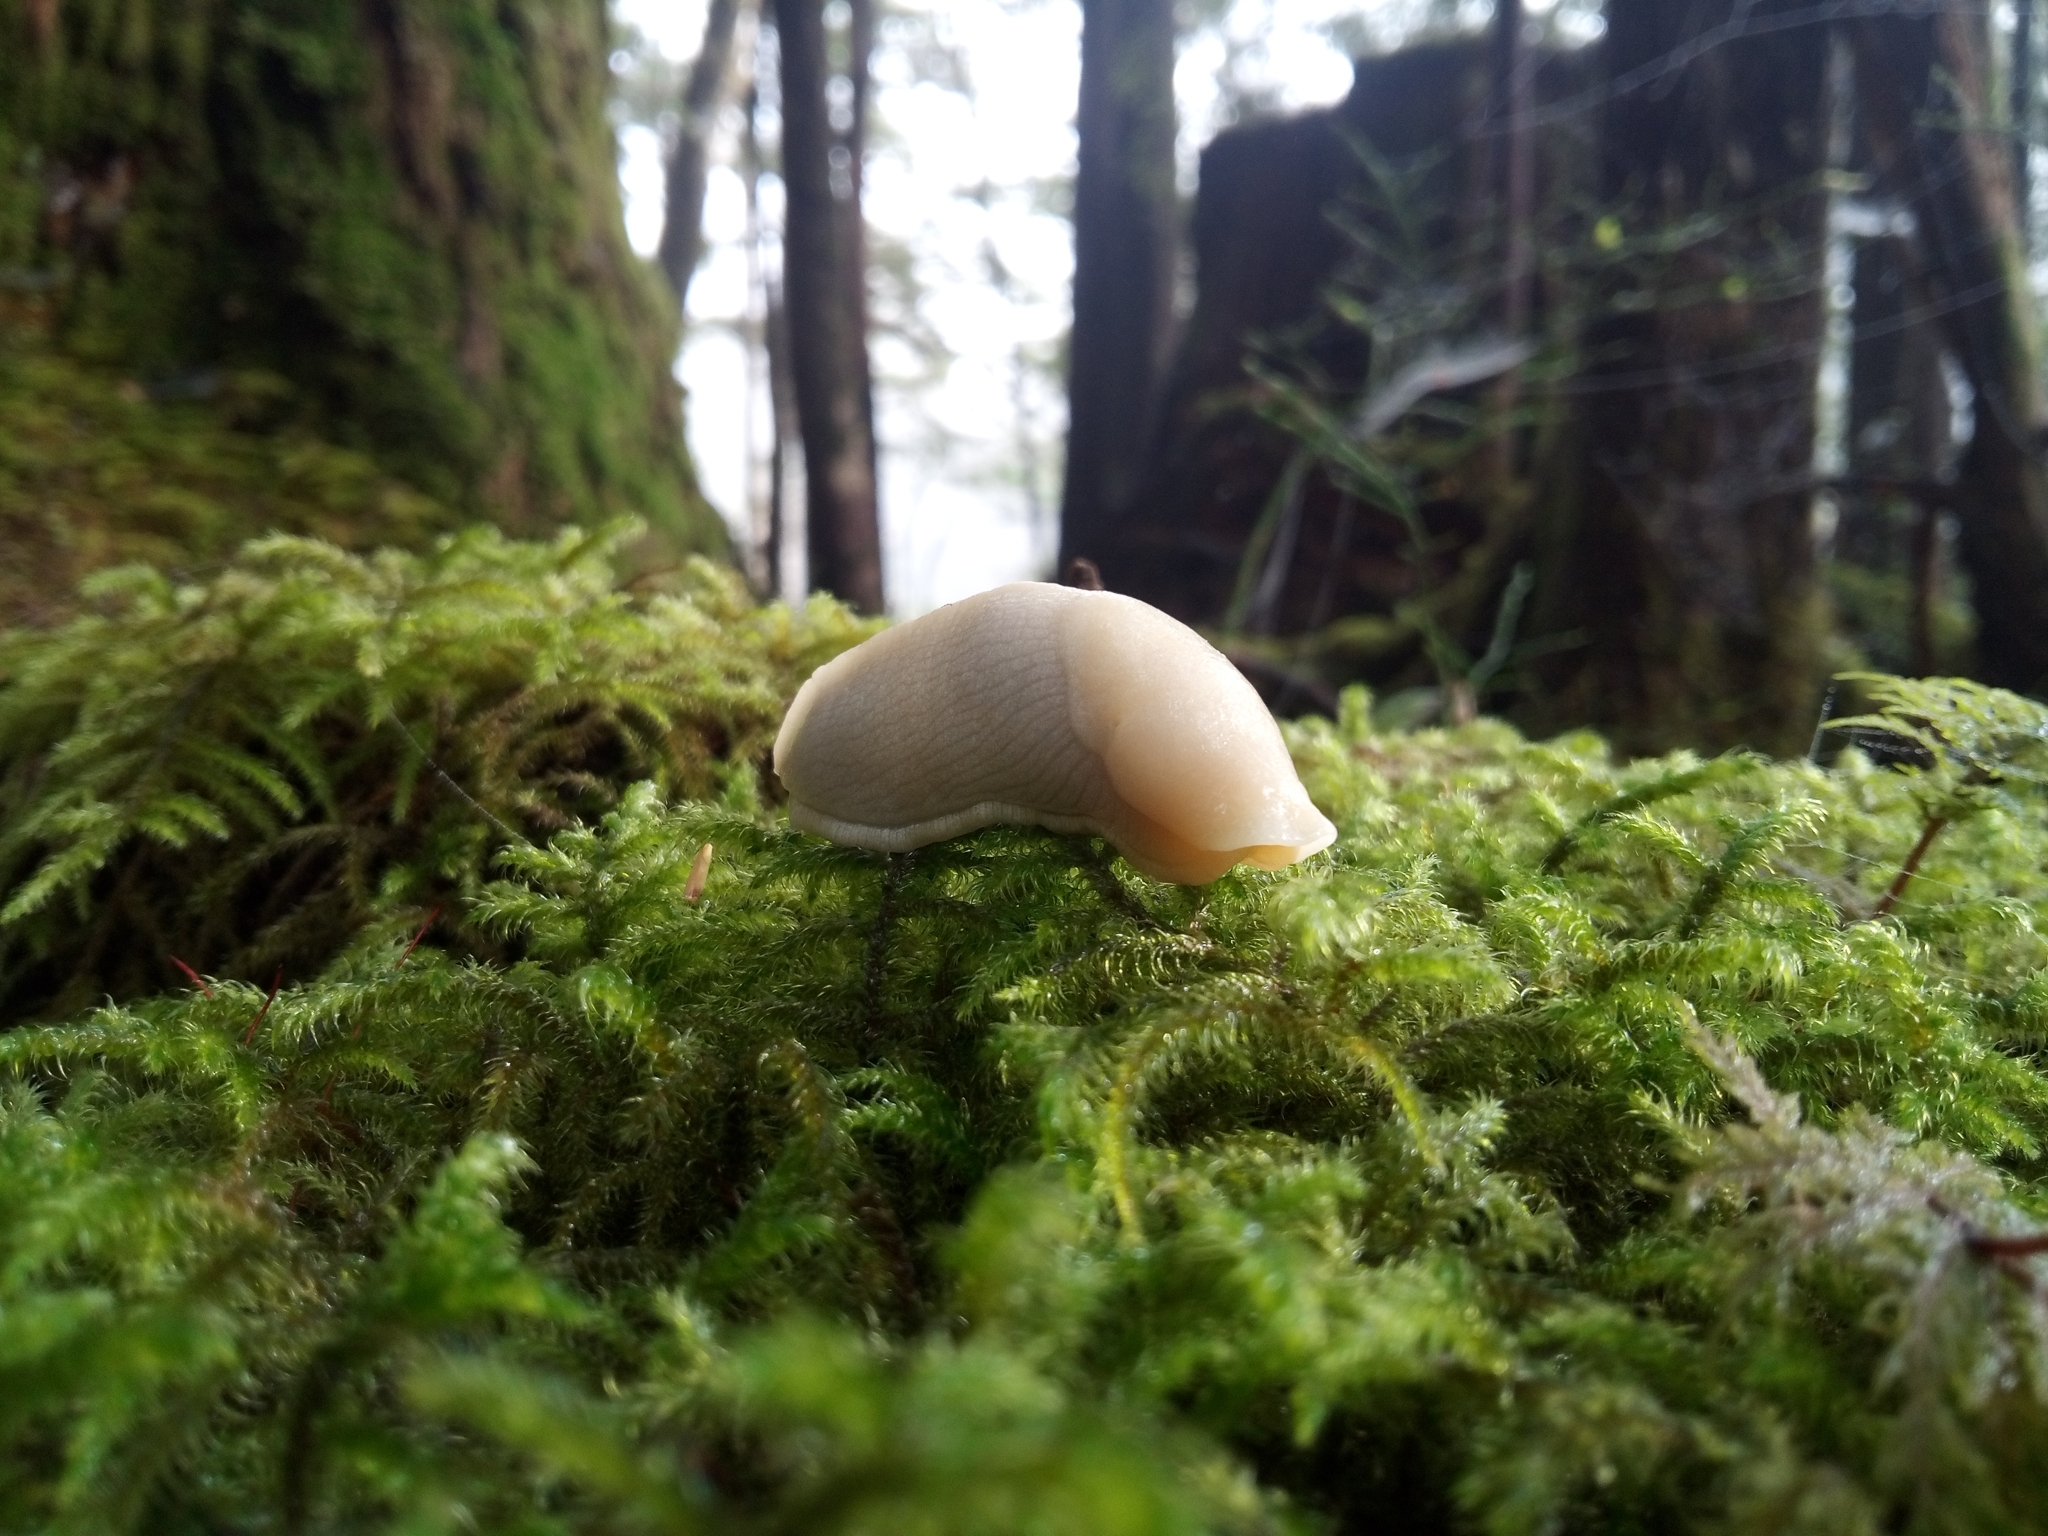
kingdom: Animalia
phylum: Mollusca
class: Gastropoda
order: Stylommatophora
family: Ariolimacidae
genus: Ariolimax
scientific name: Ariolimax columbianus
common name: Pacific banana slug
